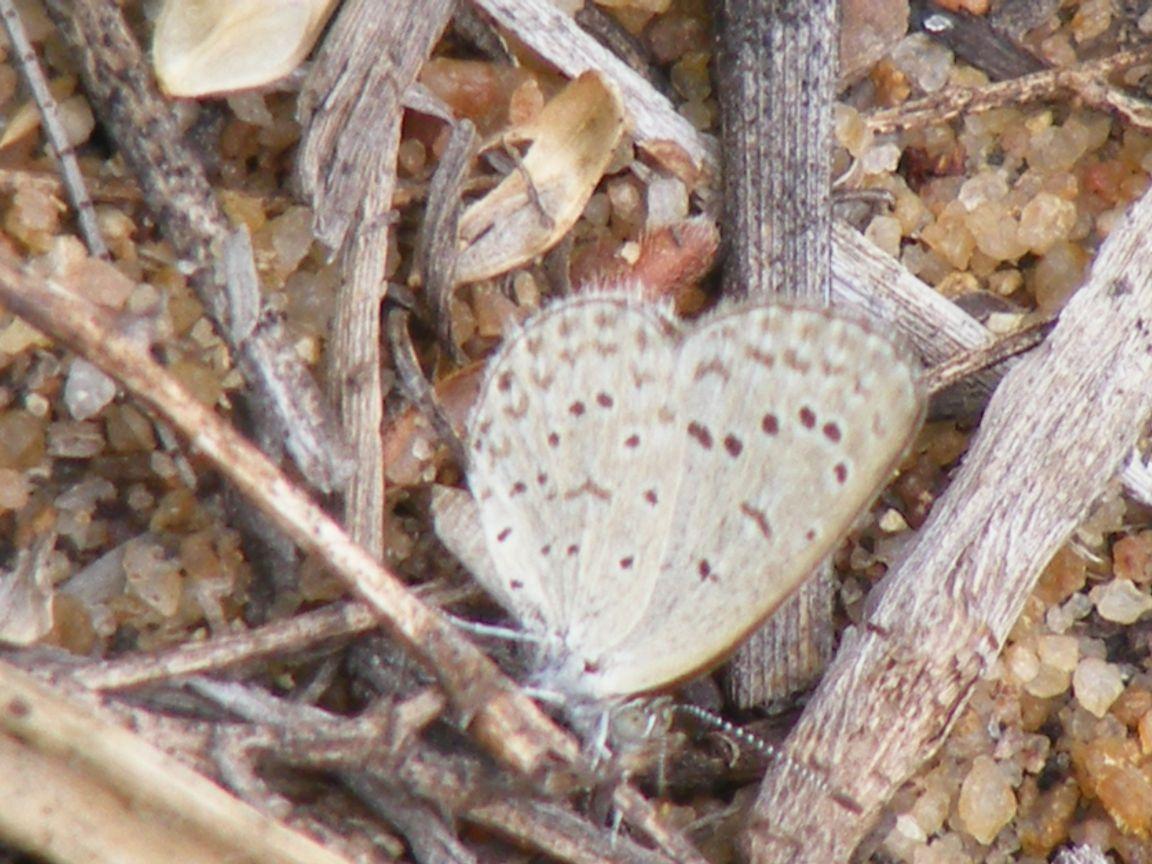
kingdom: Animalia
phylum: Arthropoda
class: Insecta
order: Lepidoptera
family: Lycaenidae
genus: Zizeeria
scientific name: Zizeeria knysna
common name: African grass blue
